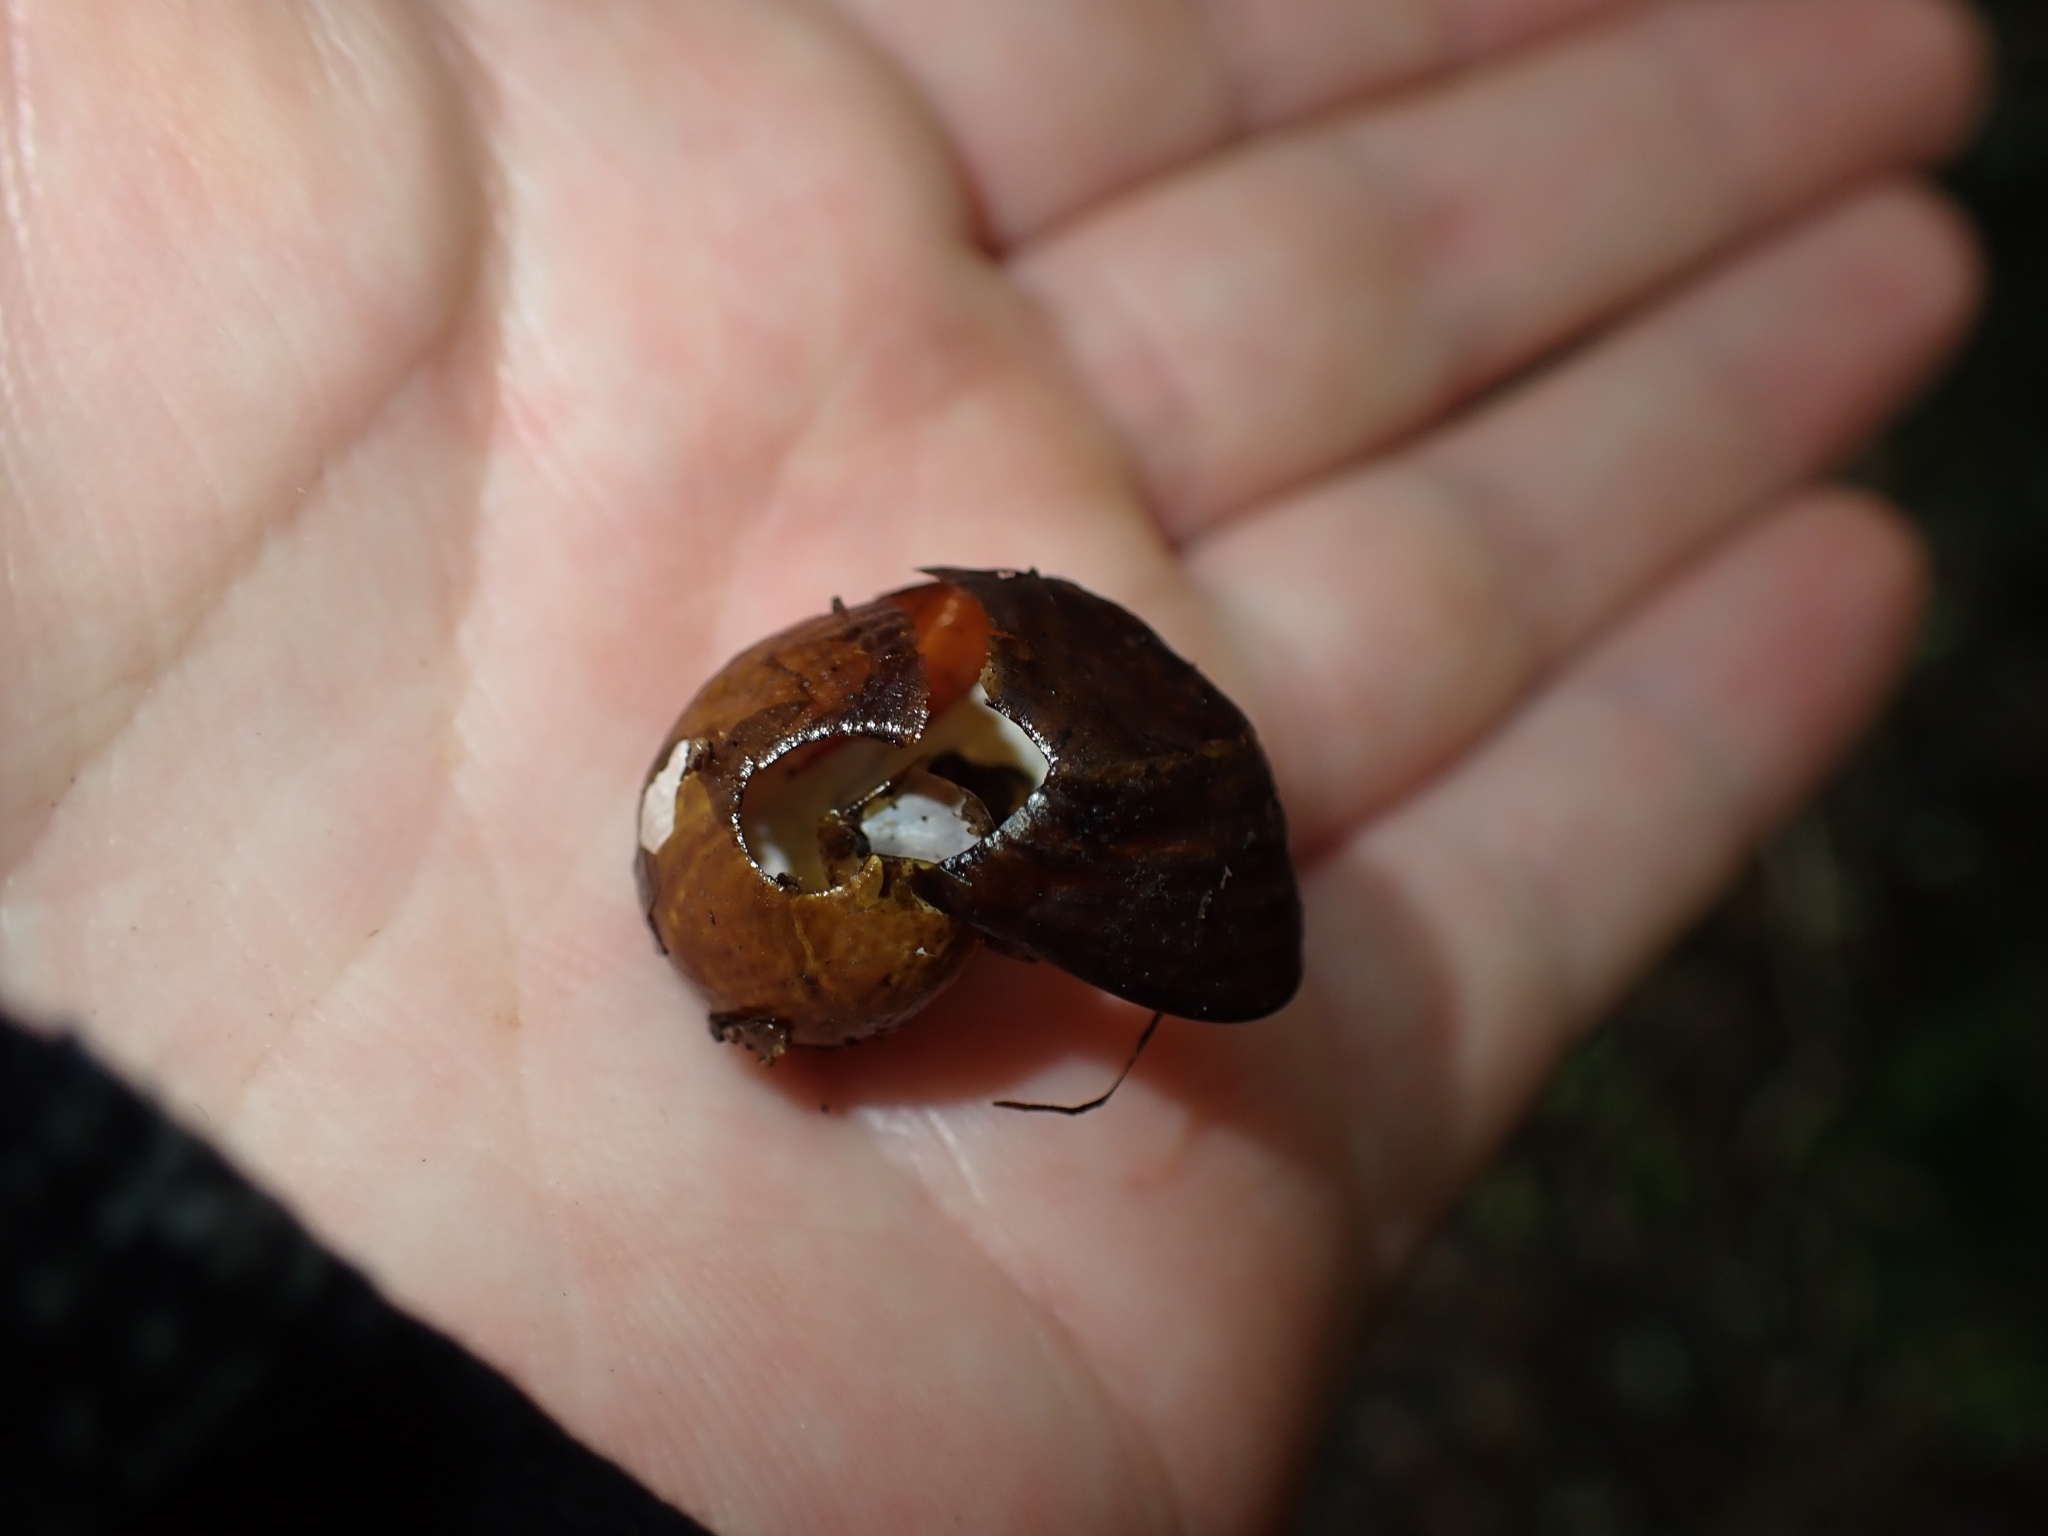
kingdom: Animalia
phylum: Mollusca
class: Gastropoda
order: Stylommatophora
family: Rhytididae
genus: Wainuia
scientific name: Wainuia urnula
